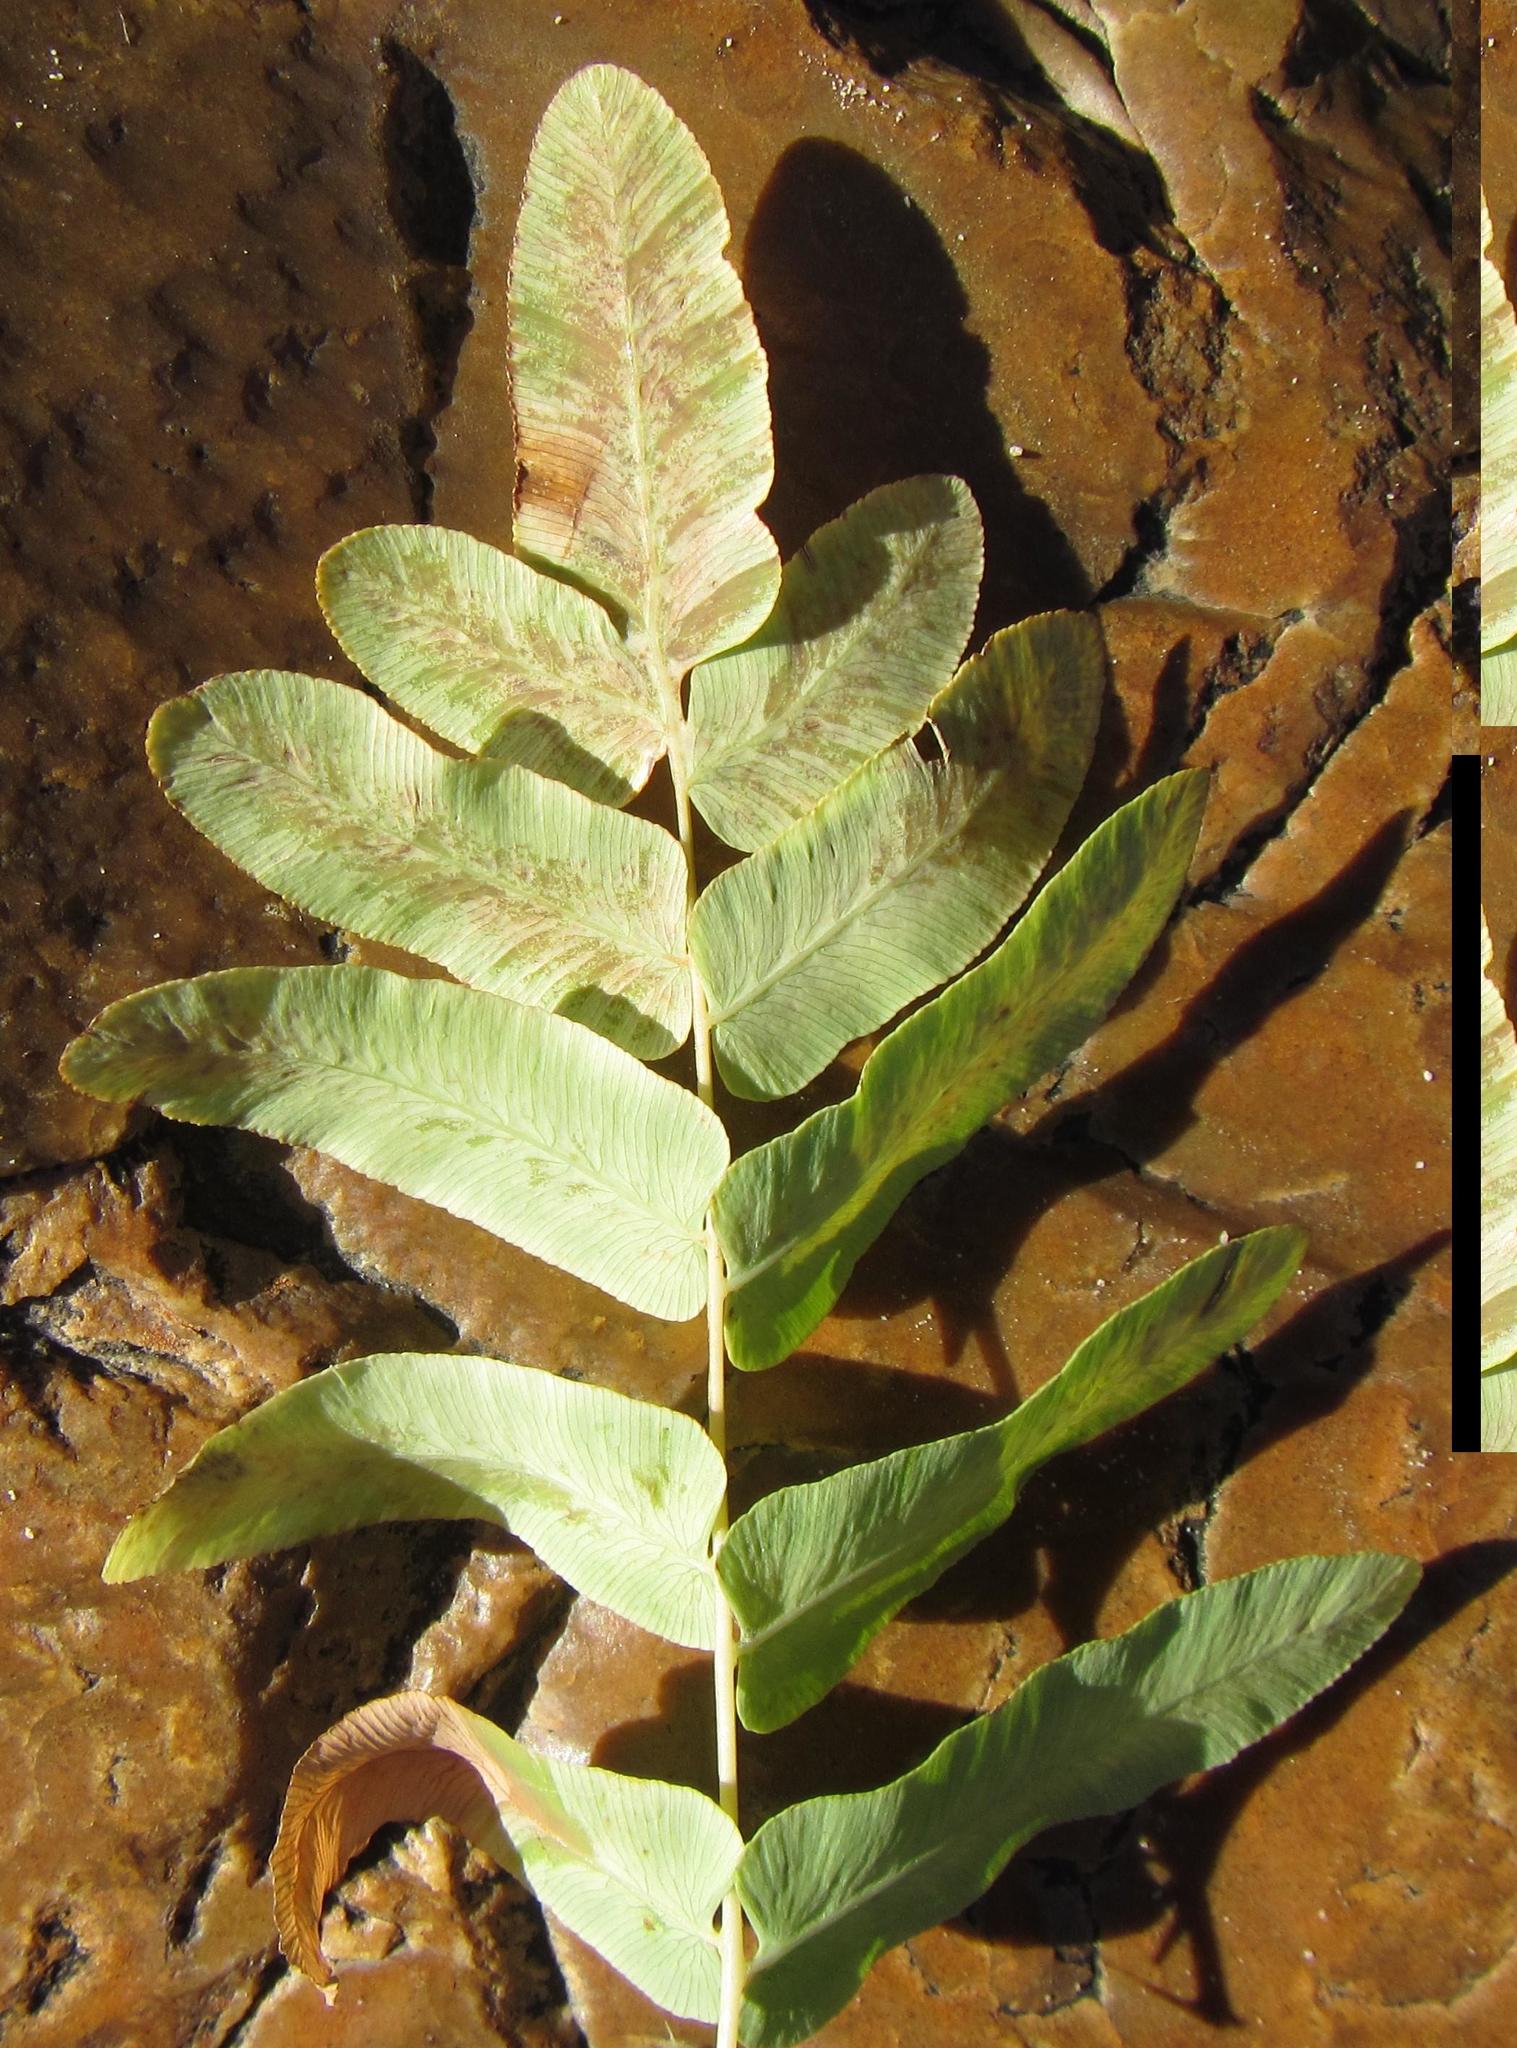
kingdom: Plantae
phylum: Tracheophyta
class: Polypodiopsida
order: Osmundales
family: Osmundaceae
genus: Osmunda
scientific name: Osmunda acuta
